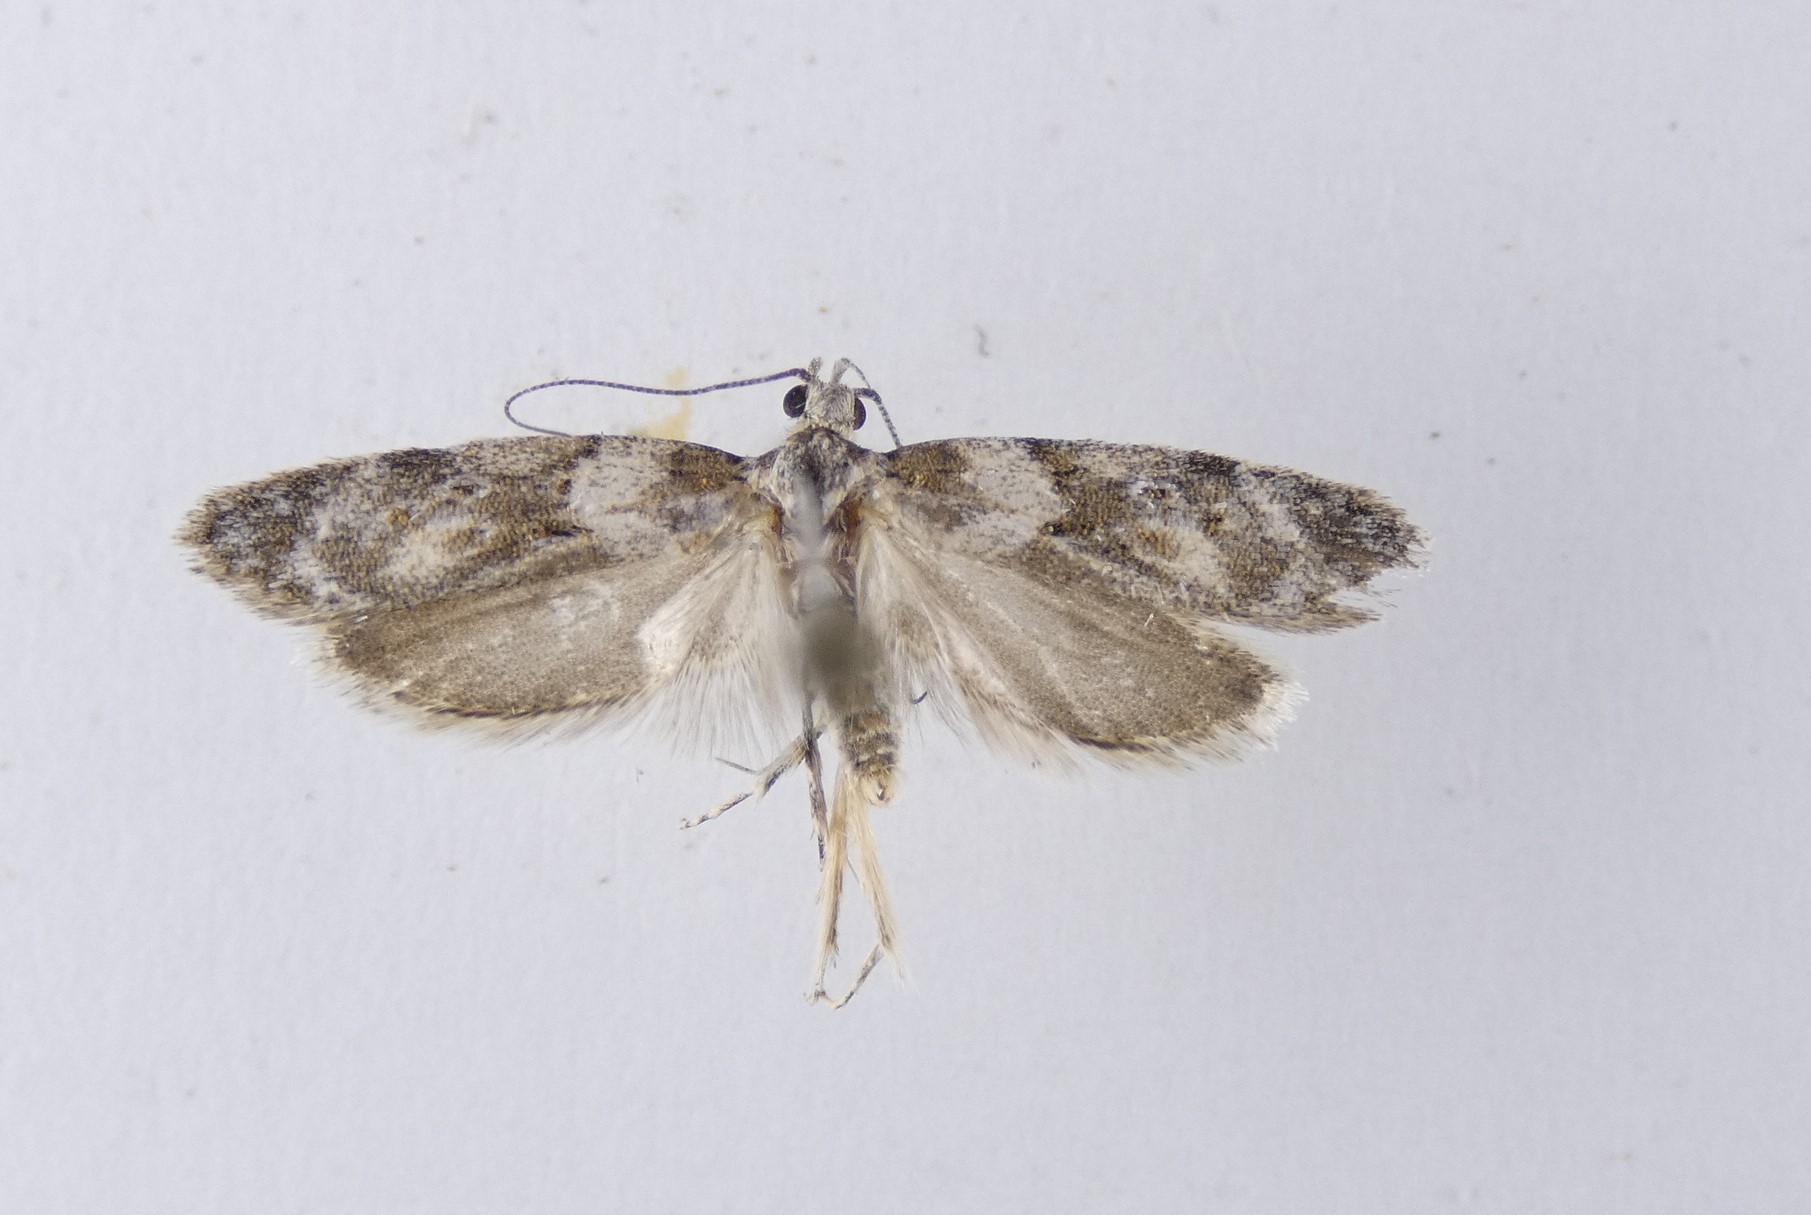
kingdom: Animalia
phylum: Arthropoda
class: Insecta
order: Lepidoptera
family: Oecophoridae
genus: Izatha
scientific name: Izatha convulsella
